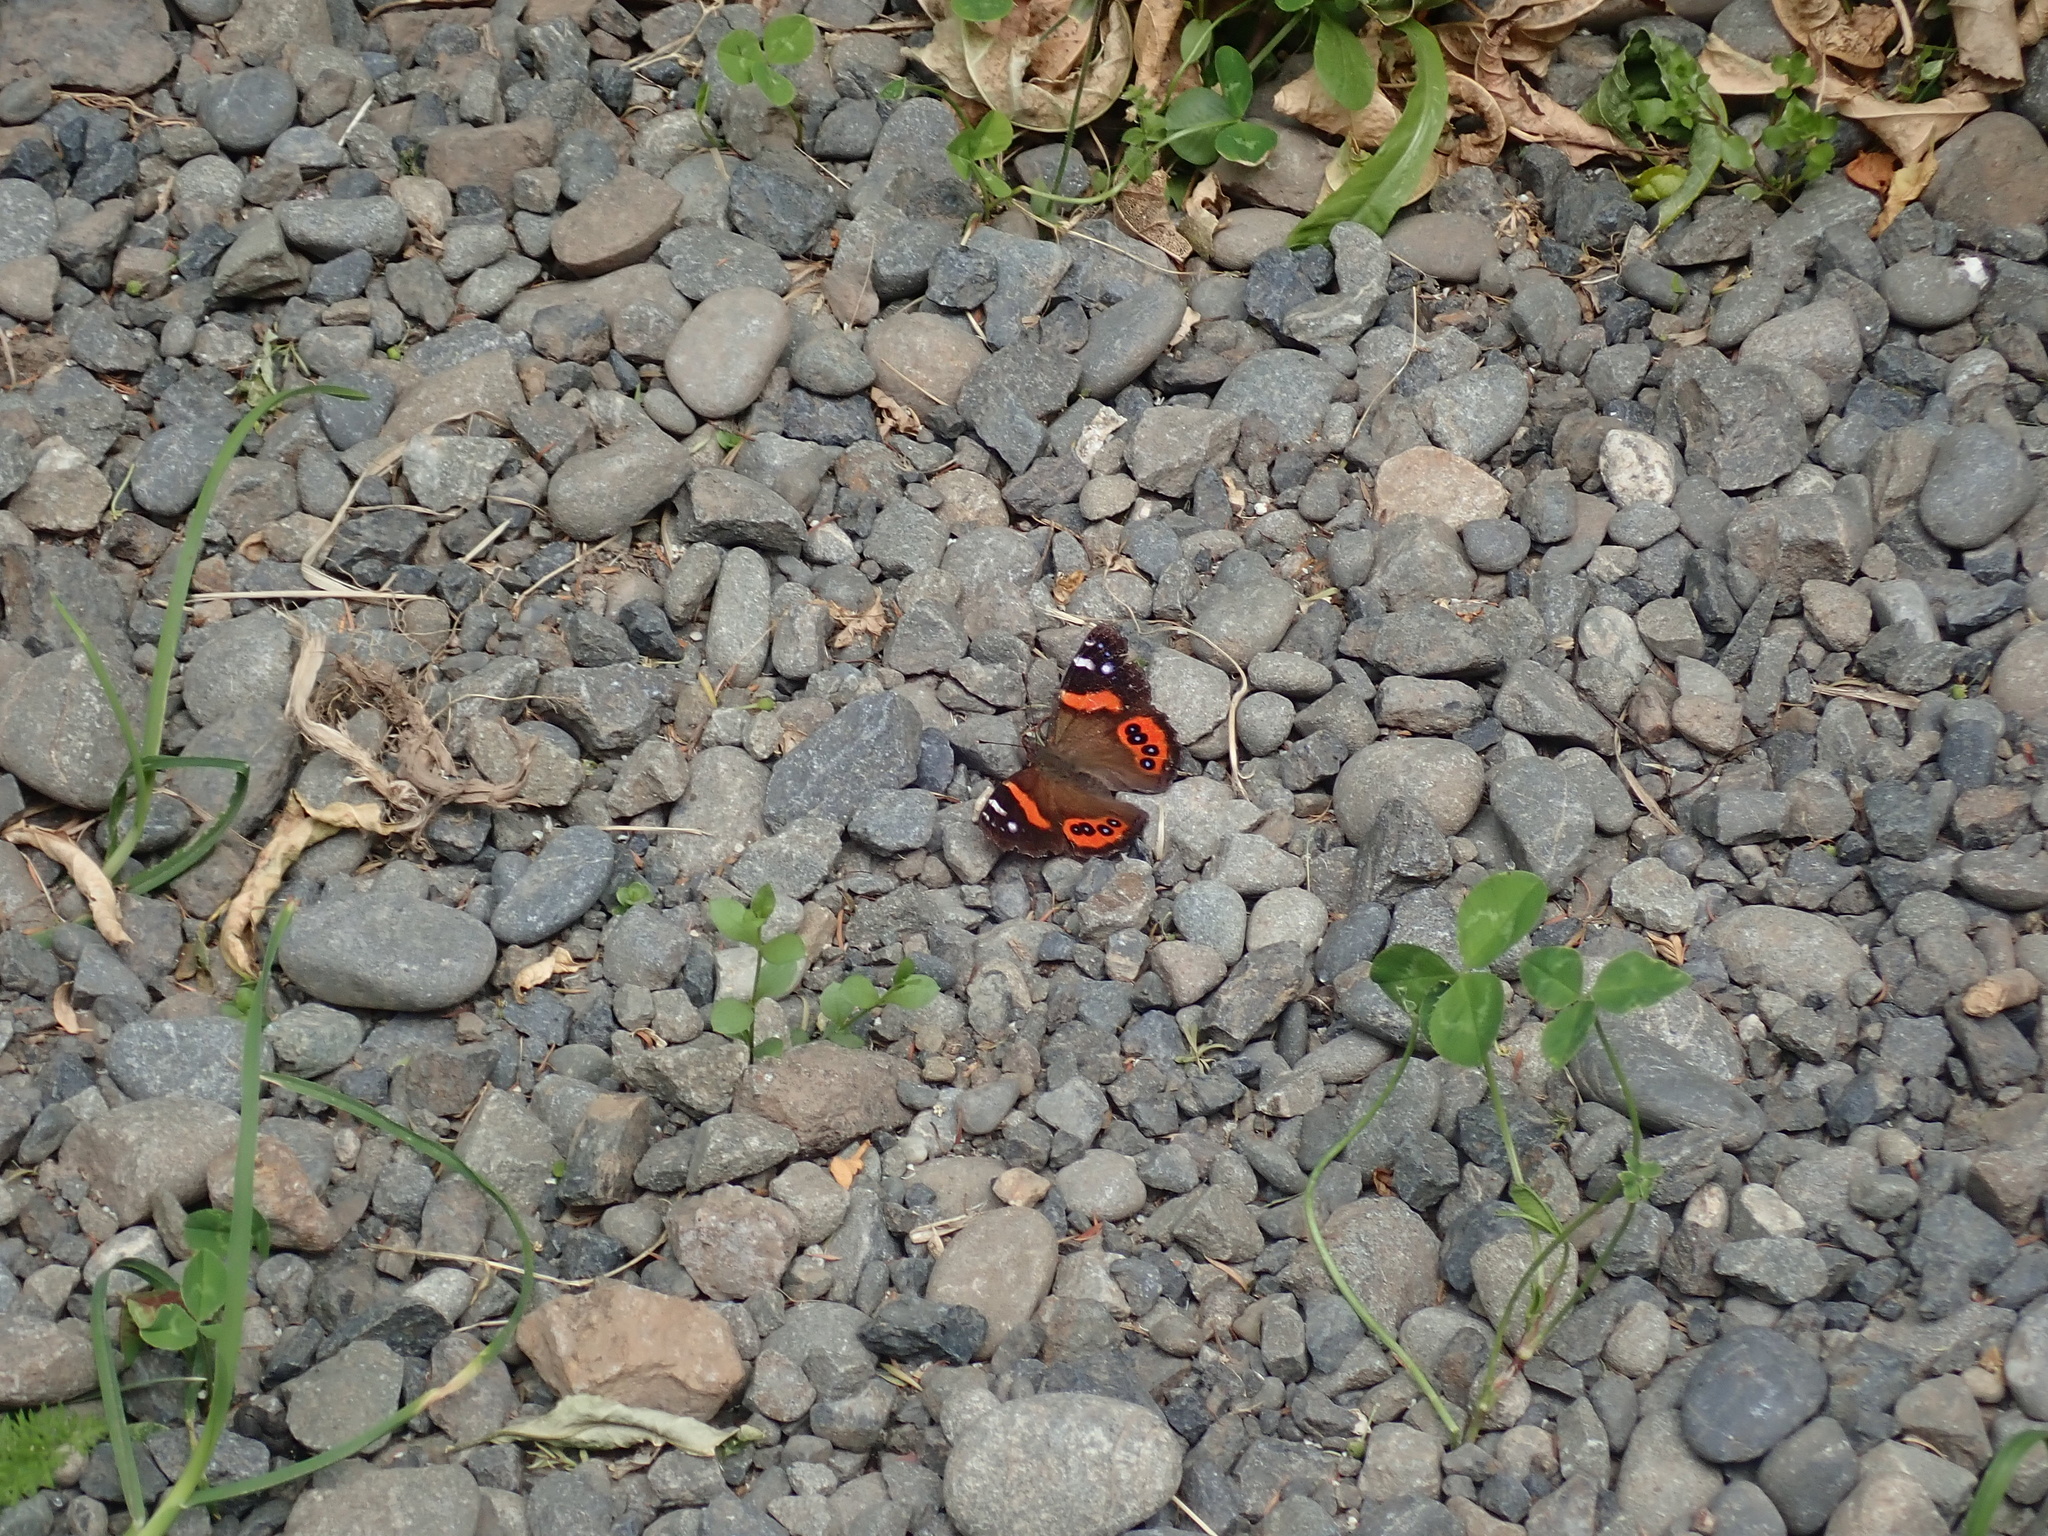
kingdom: Animalia
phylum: Arthropoda
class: Insecta
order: Lepidoptera
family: Nymphalidae
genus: Vanessa
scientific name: Vanessa gonerilla
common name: New zealand red admiral
